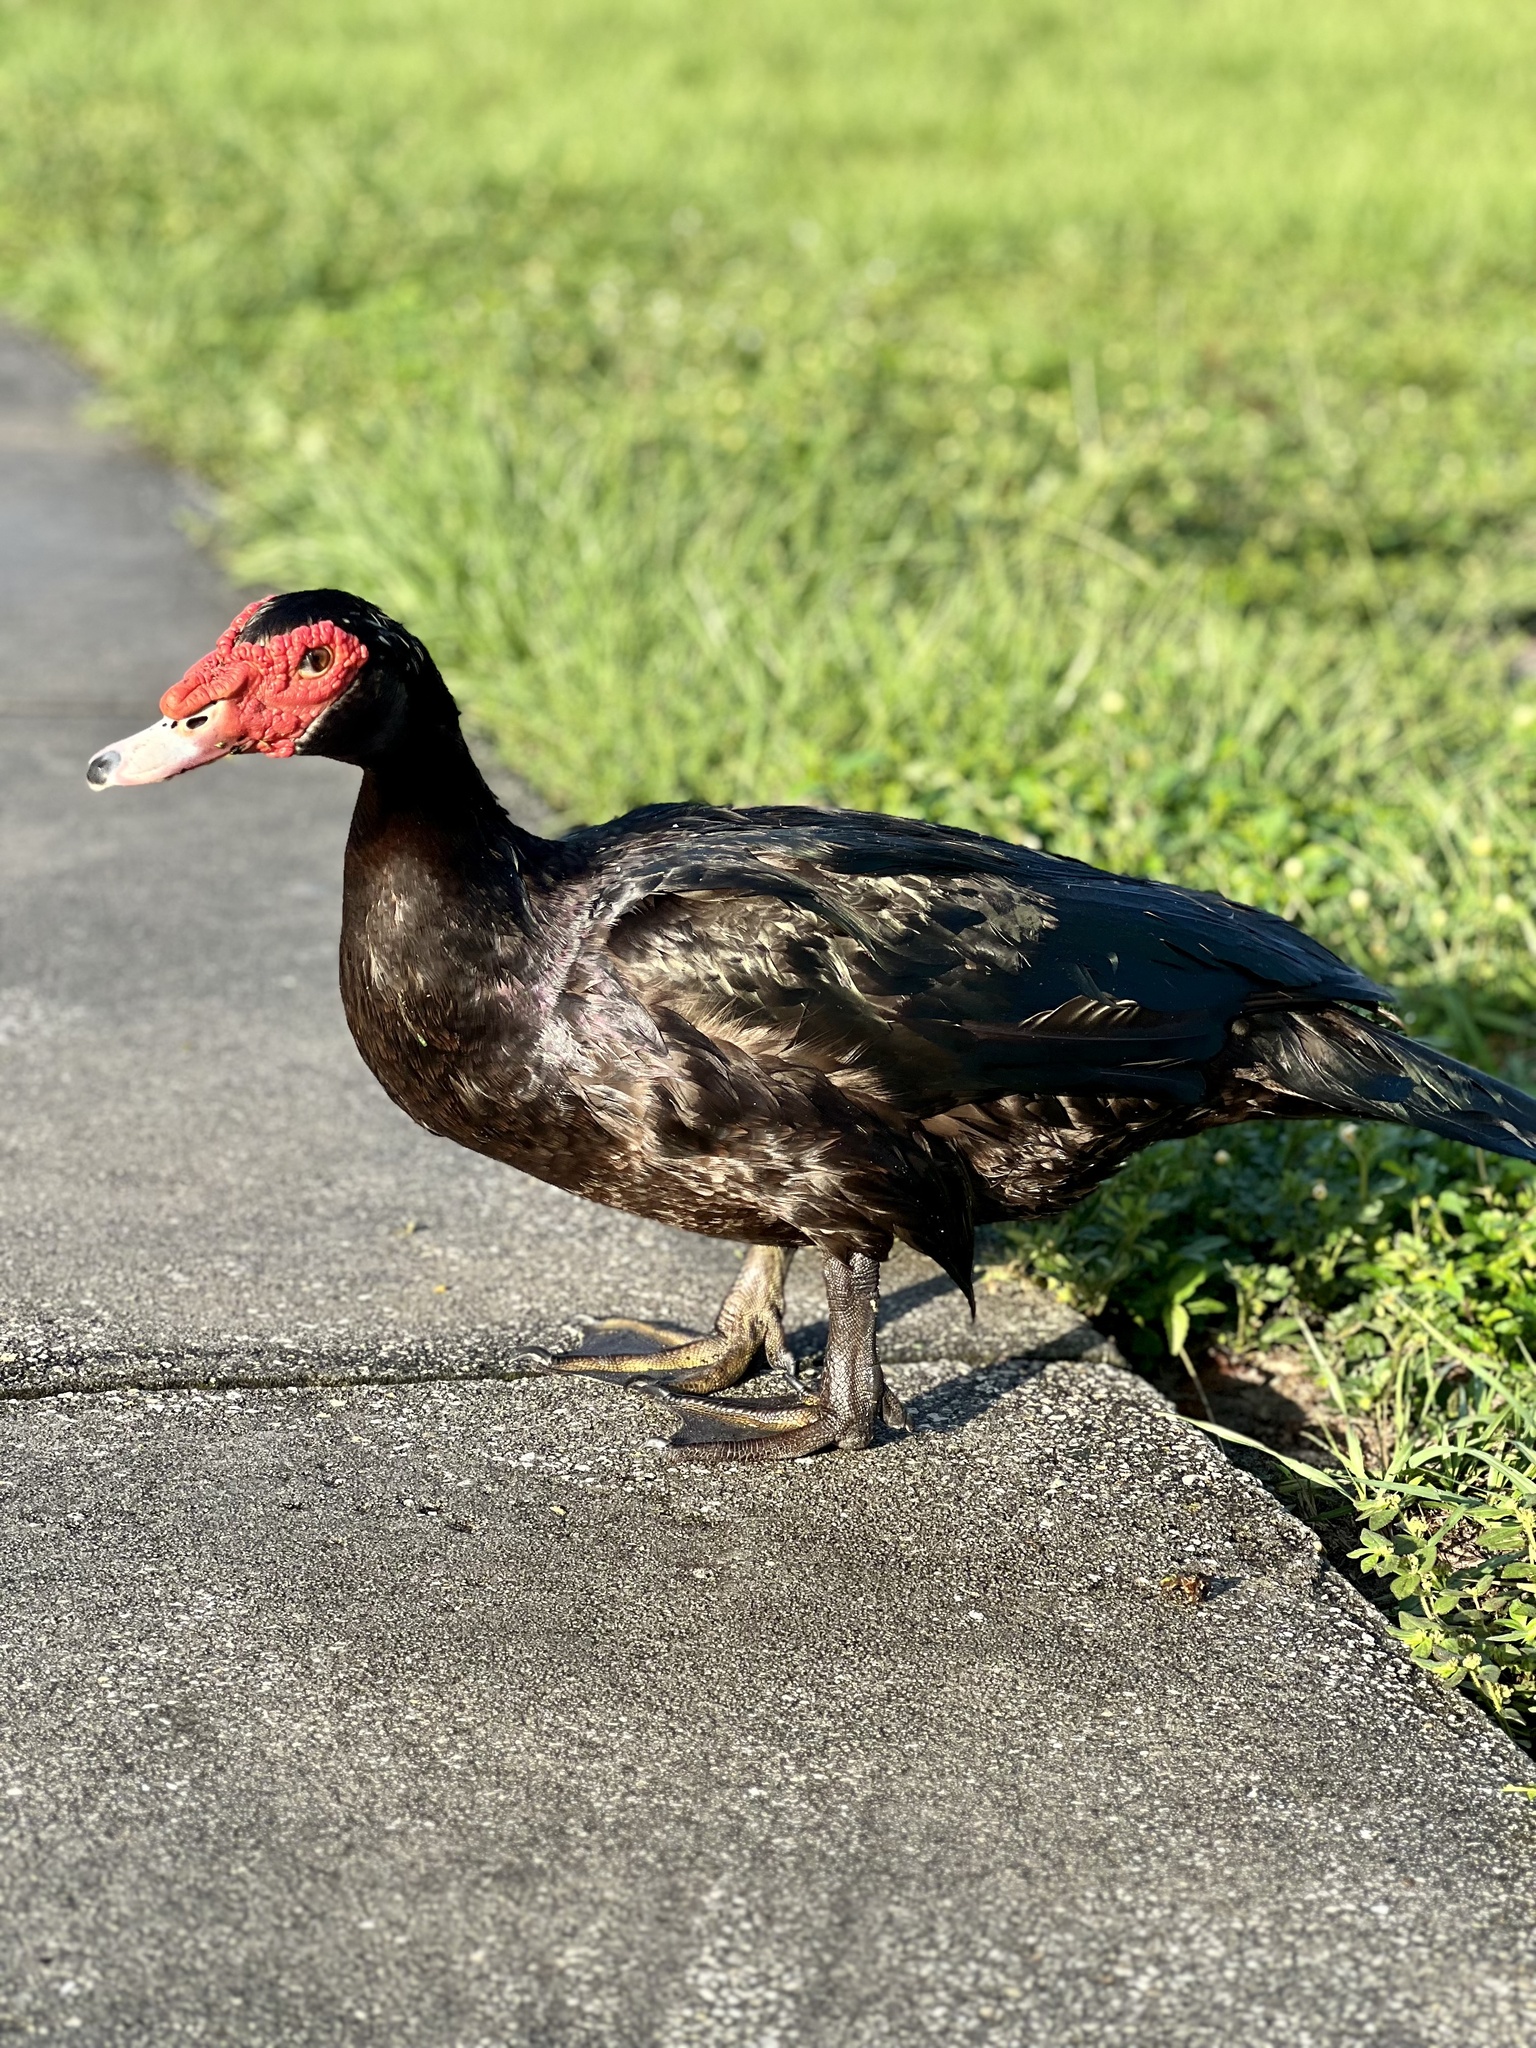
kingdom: Animalia
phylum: Chordata
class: Aves
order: Anseriformes
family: Anatidae
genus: Cairina
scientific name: Cairina moschata
